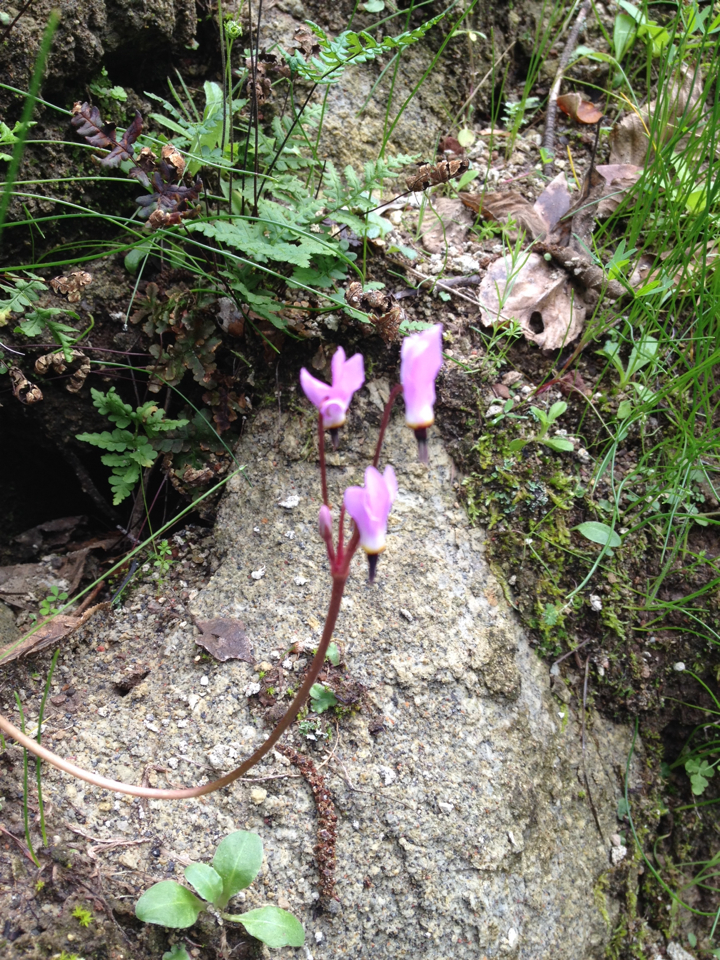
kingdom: Plantae
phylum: Tracheophyta
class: Magnoliopsida
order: Ericales
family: Primulaceae
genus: Dodecatheon
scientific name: Dodecatheon hendersonii
